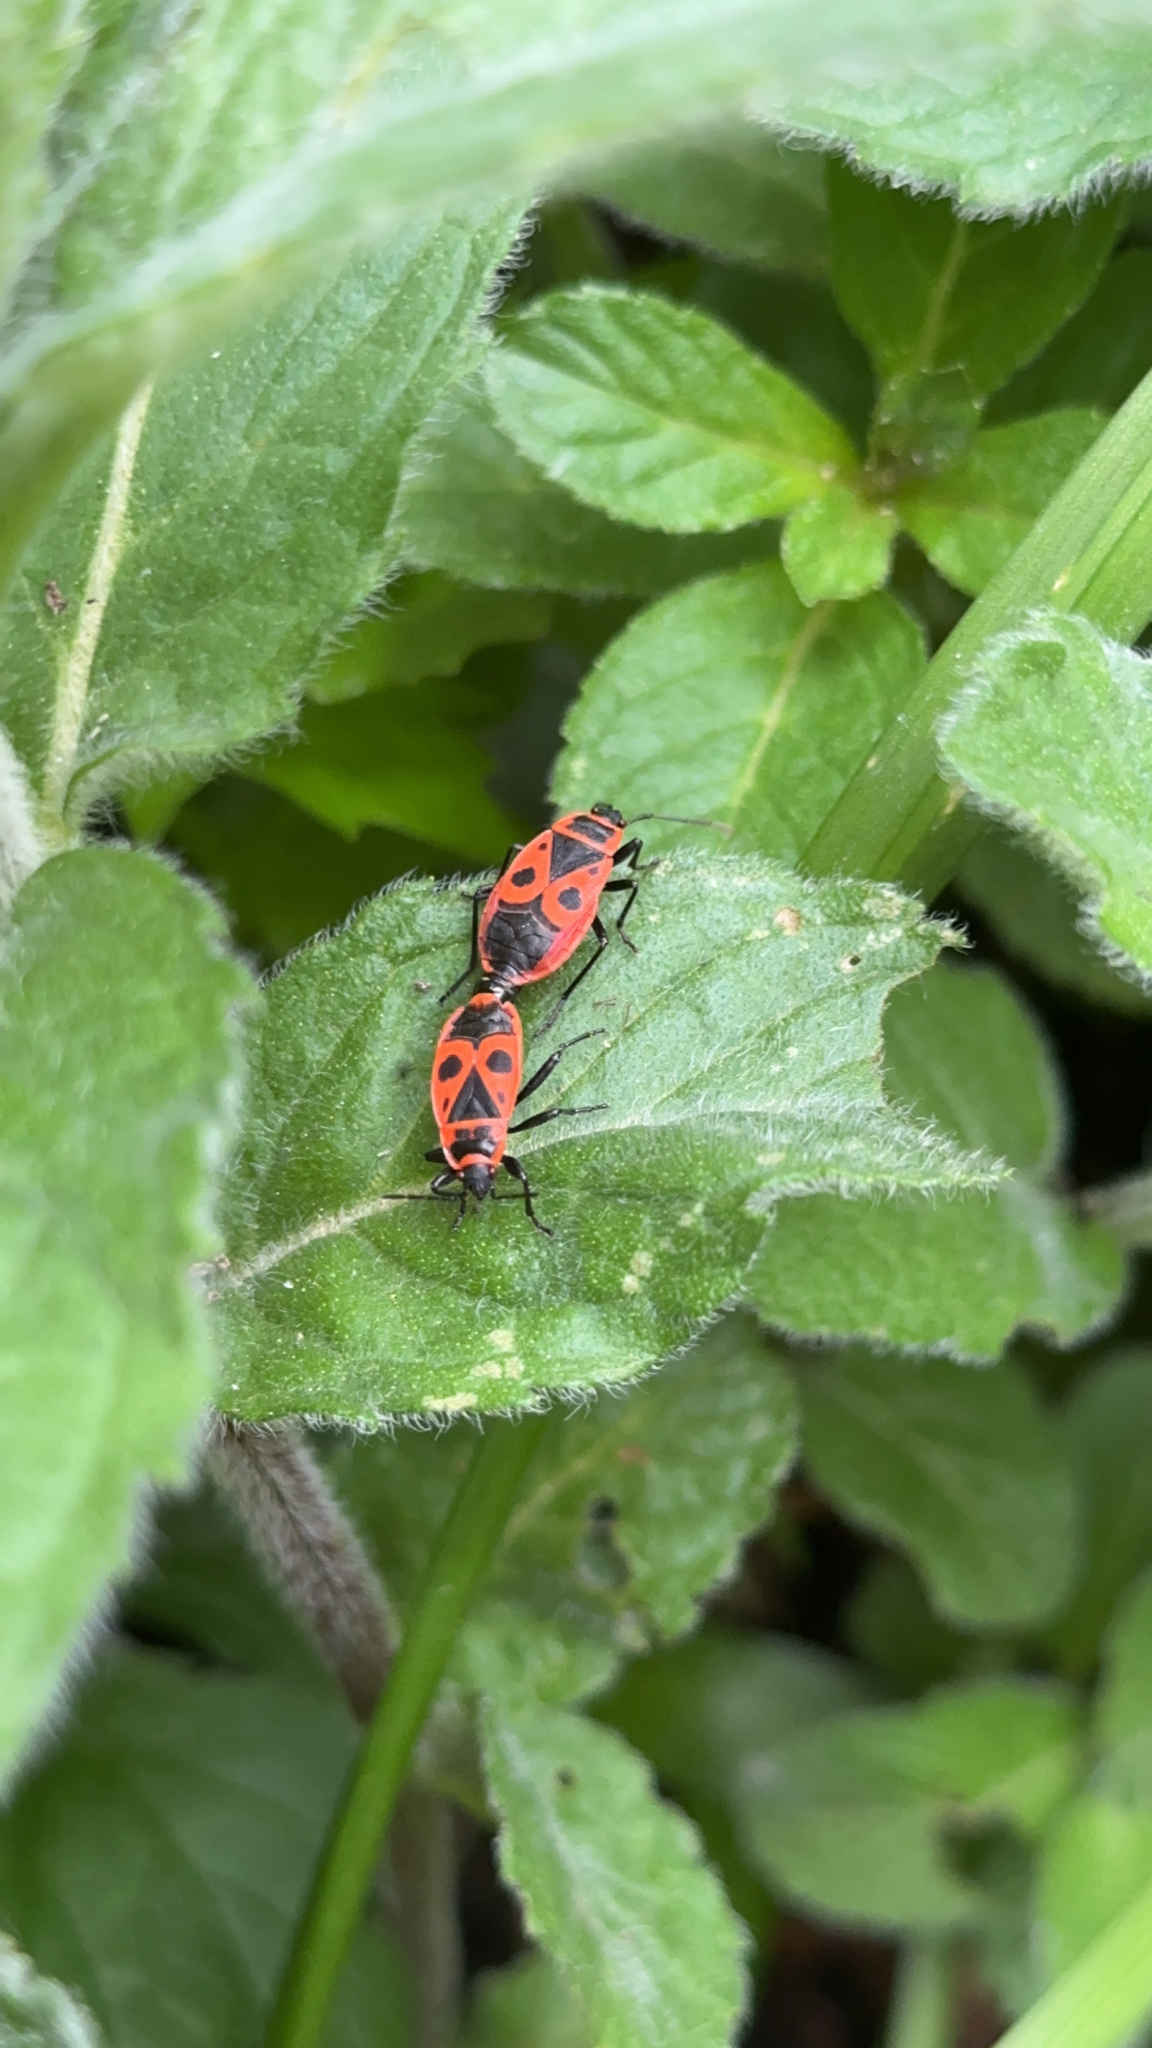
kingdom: Animalia
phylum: Arthropoda
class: Insecta
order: Hemiptera
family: Pyrrhocoridae
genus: Pyrrhocoris
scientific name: Pyrrhocoris apterus
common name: Firebug
